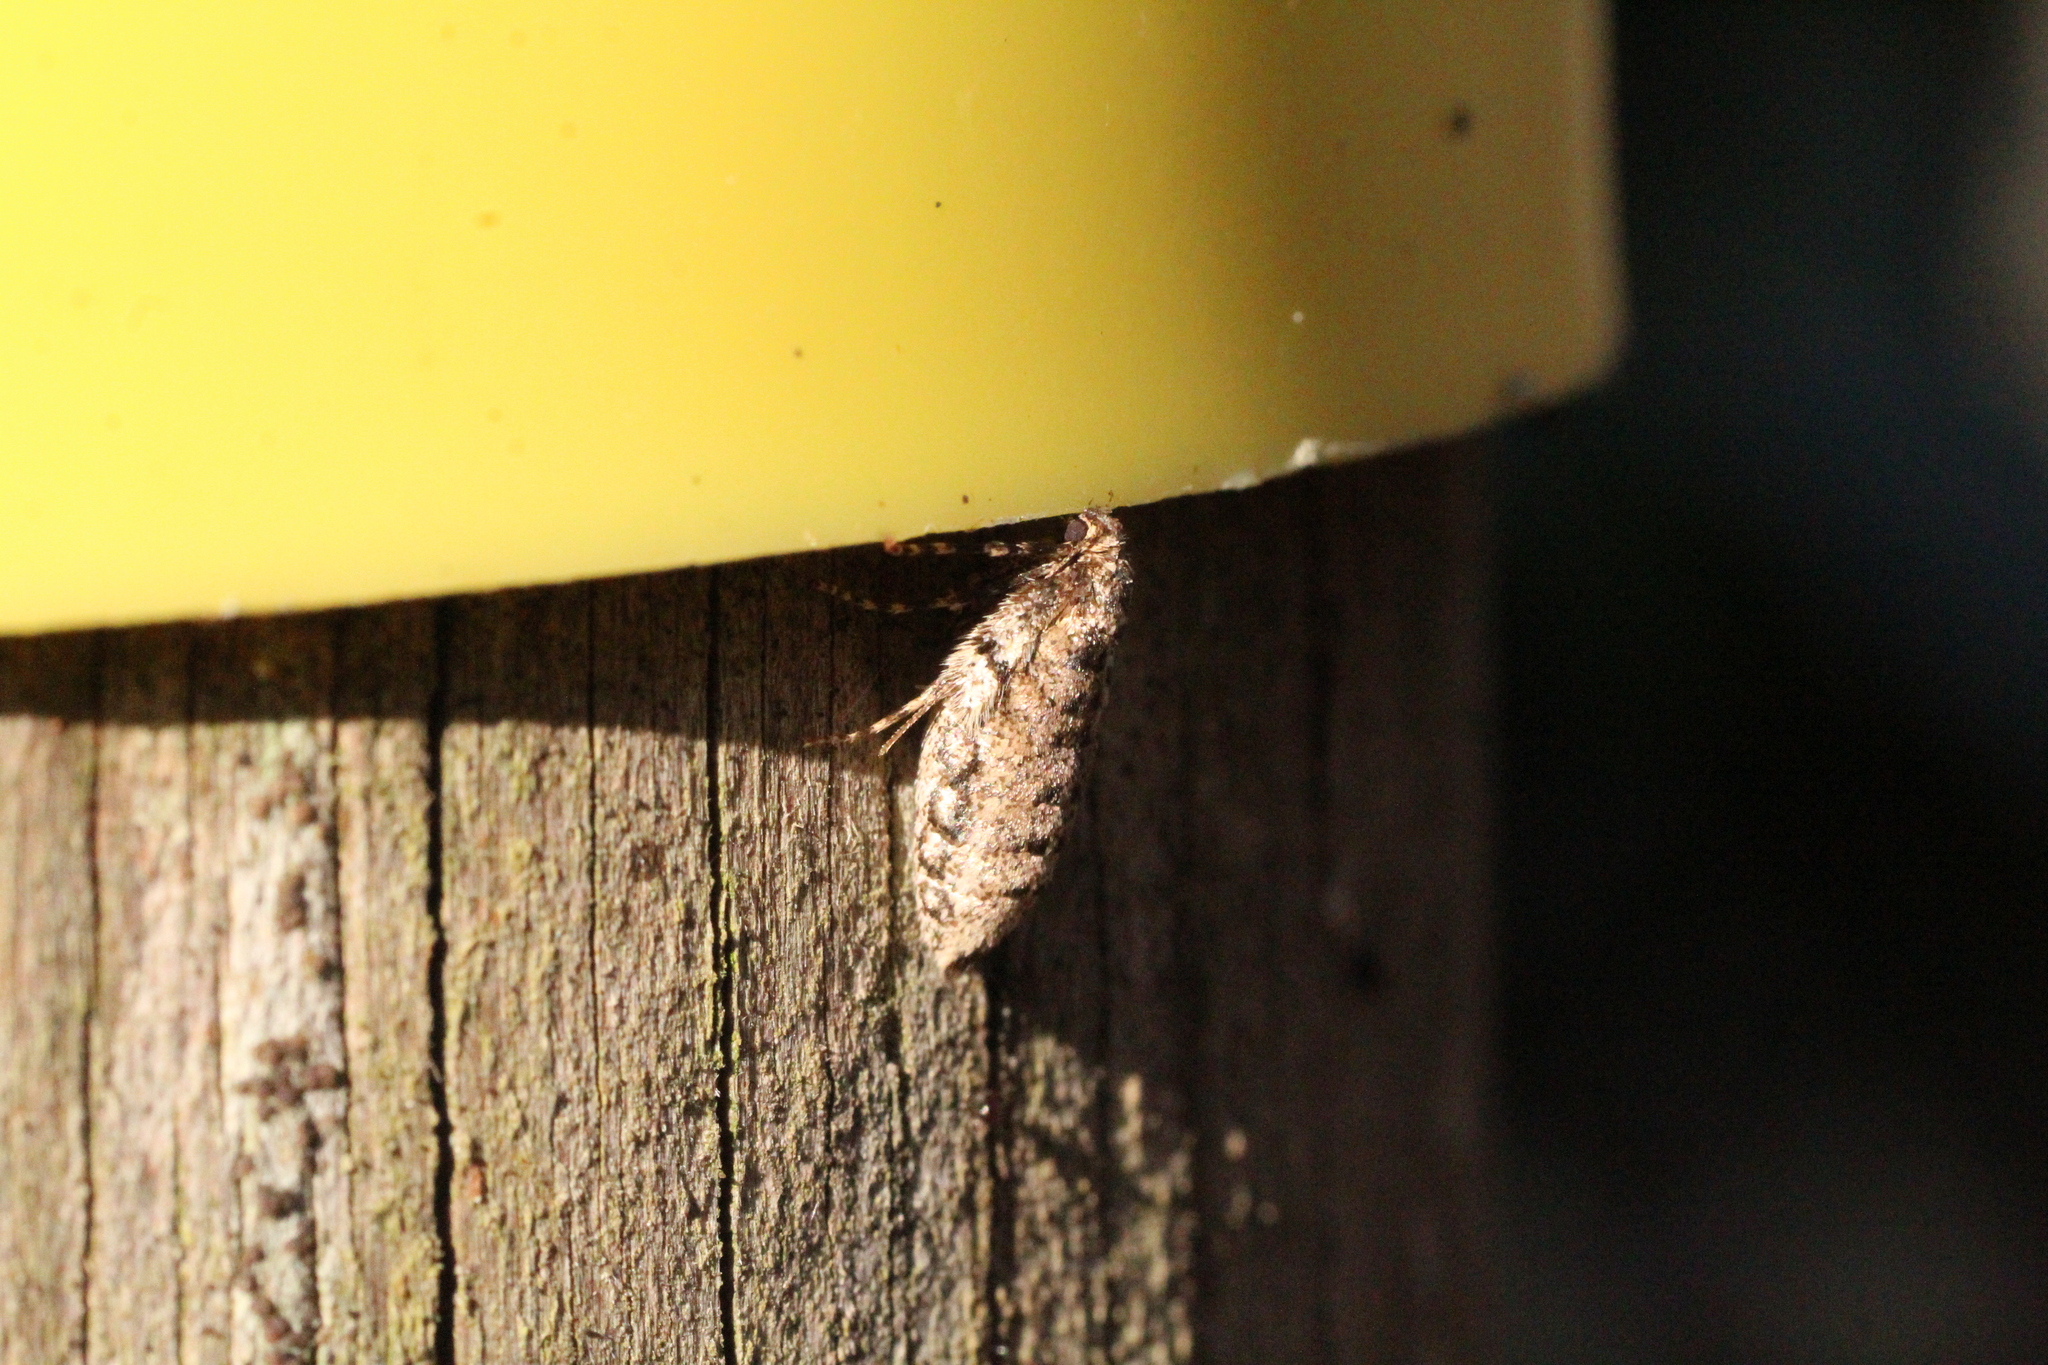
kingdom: Animalia
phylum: Arthropoda
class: Insecta
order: Lepidoptera
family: Geometridae
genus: Operophtera
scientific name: Operophtera brumata
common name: Winter moth
